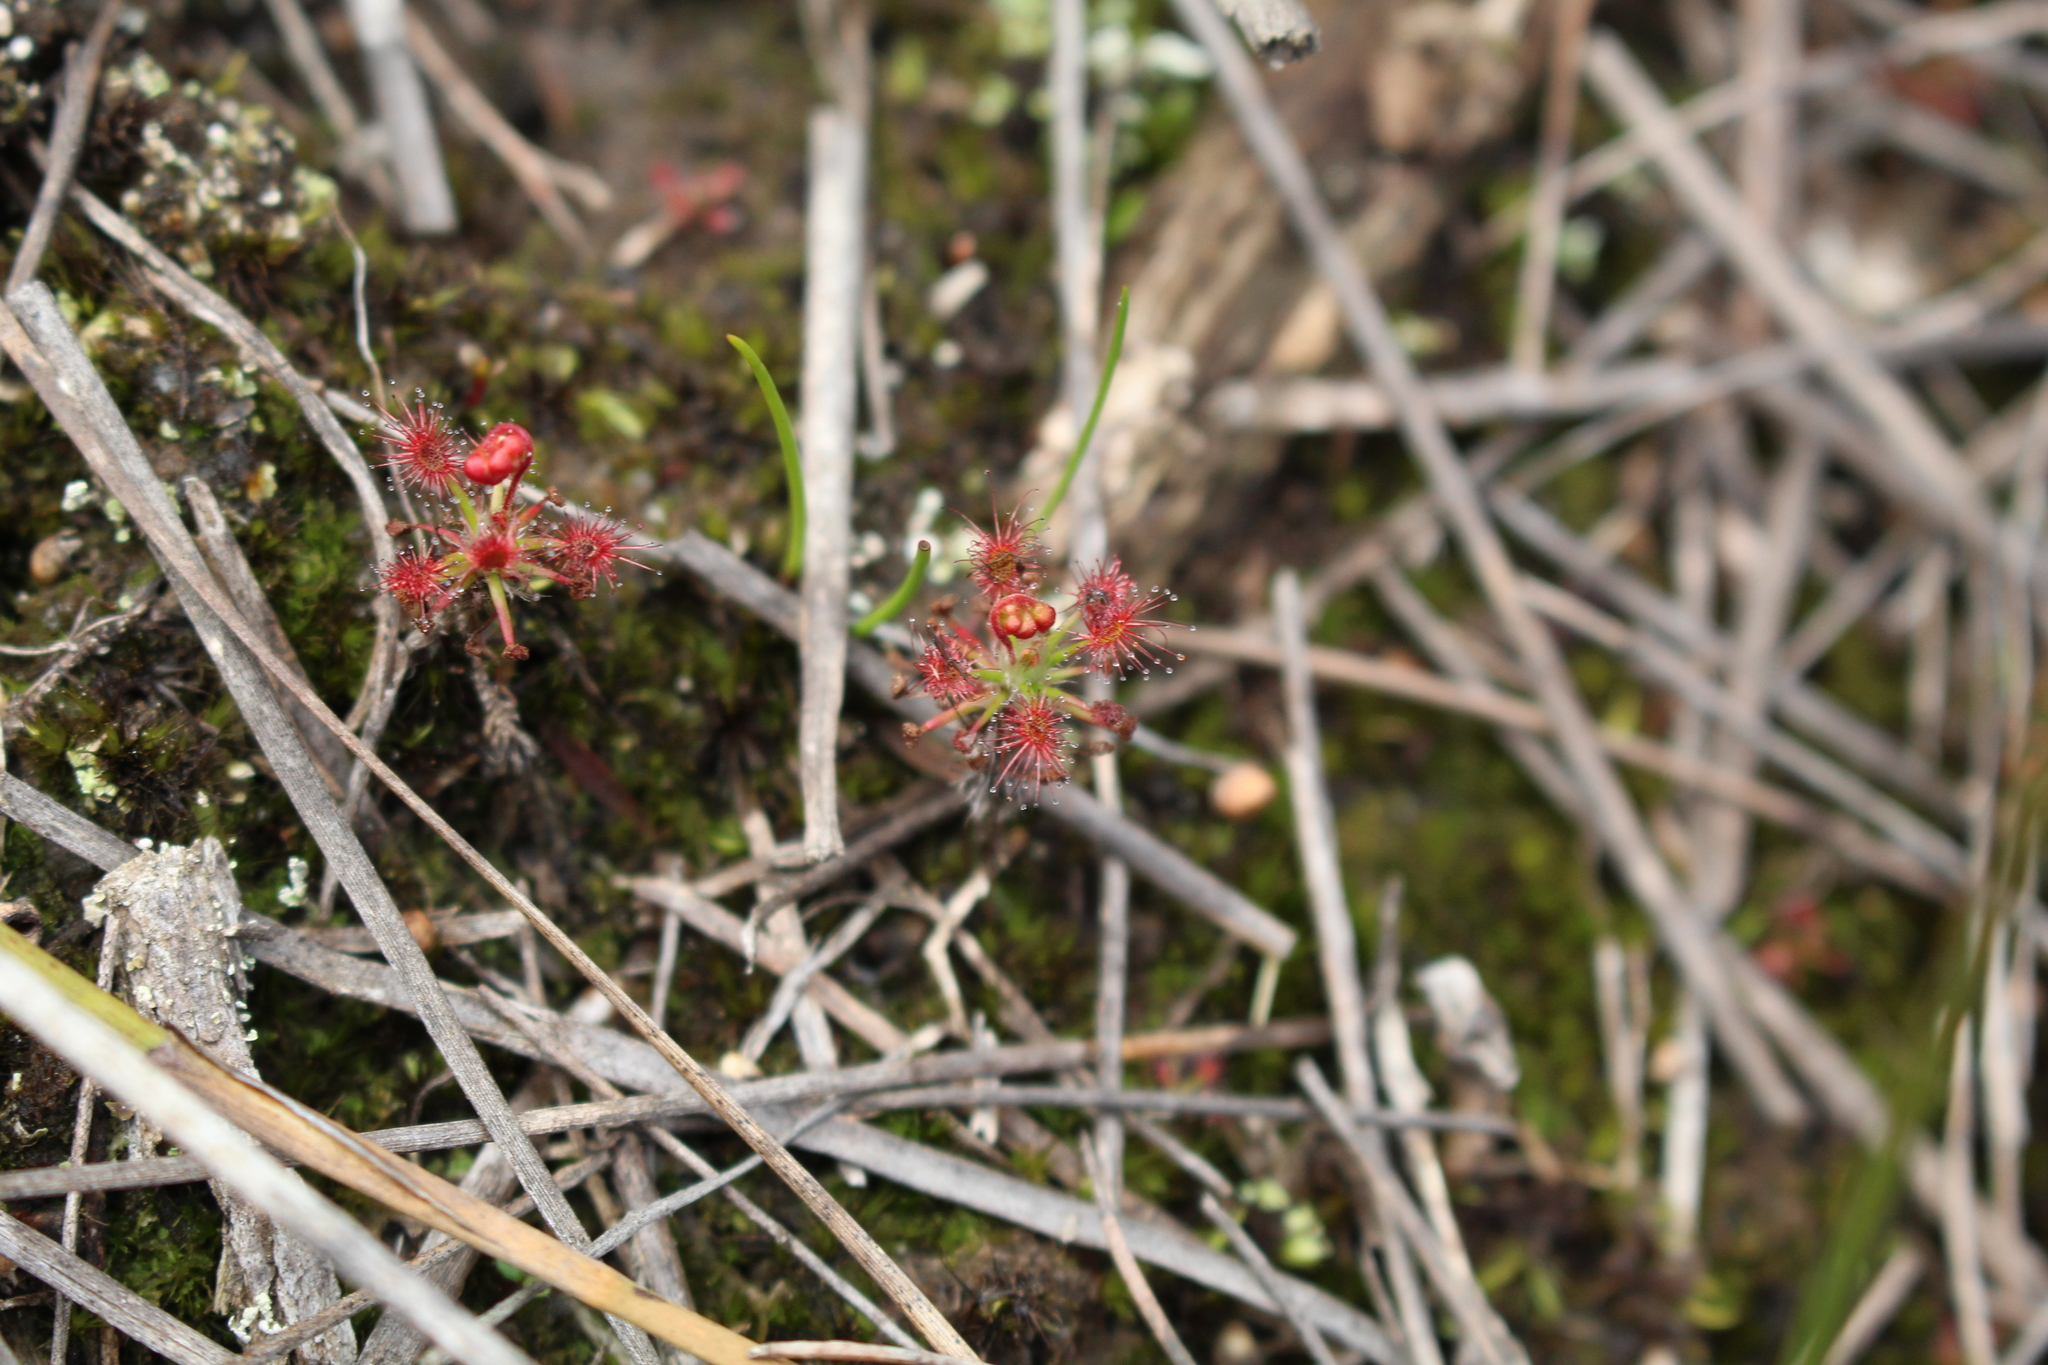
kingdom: Plantae
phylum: Tracheophyta
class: Magnoliopsida
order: Caryophyllales
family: Droseraceae
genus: Drosera
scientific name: Drosera verrucata
